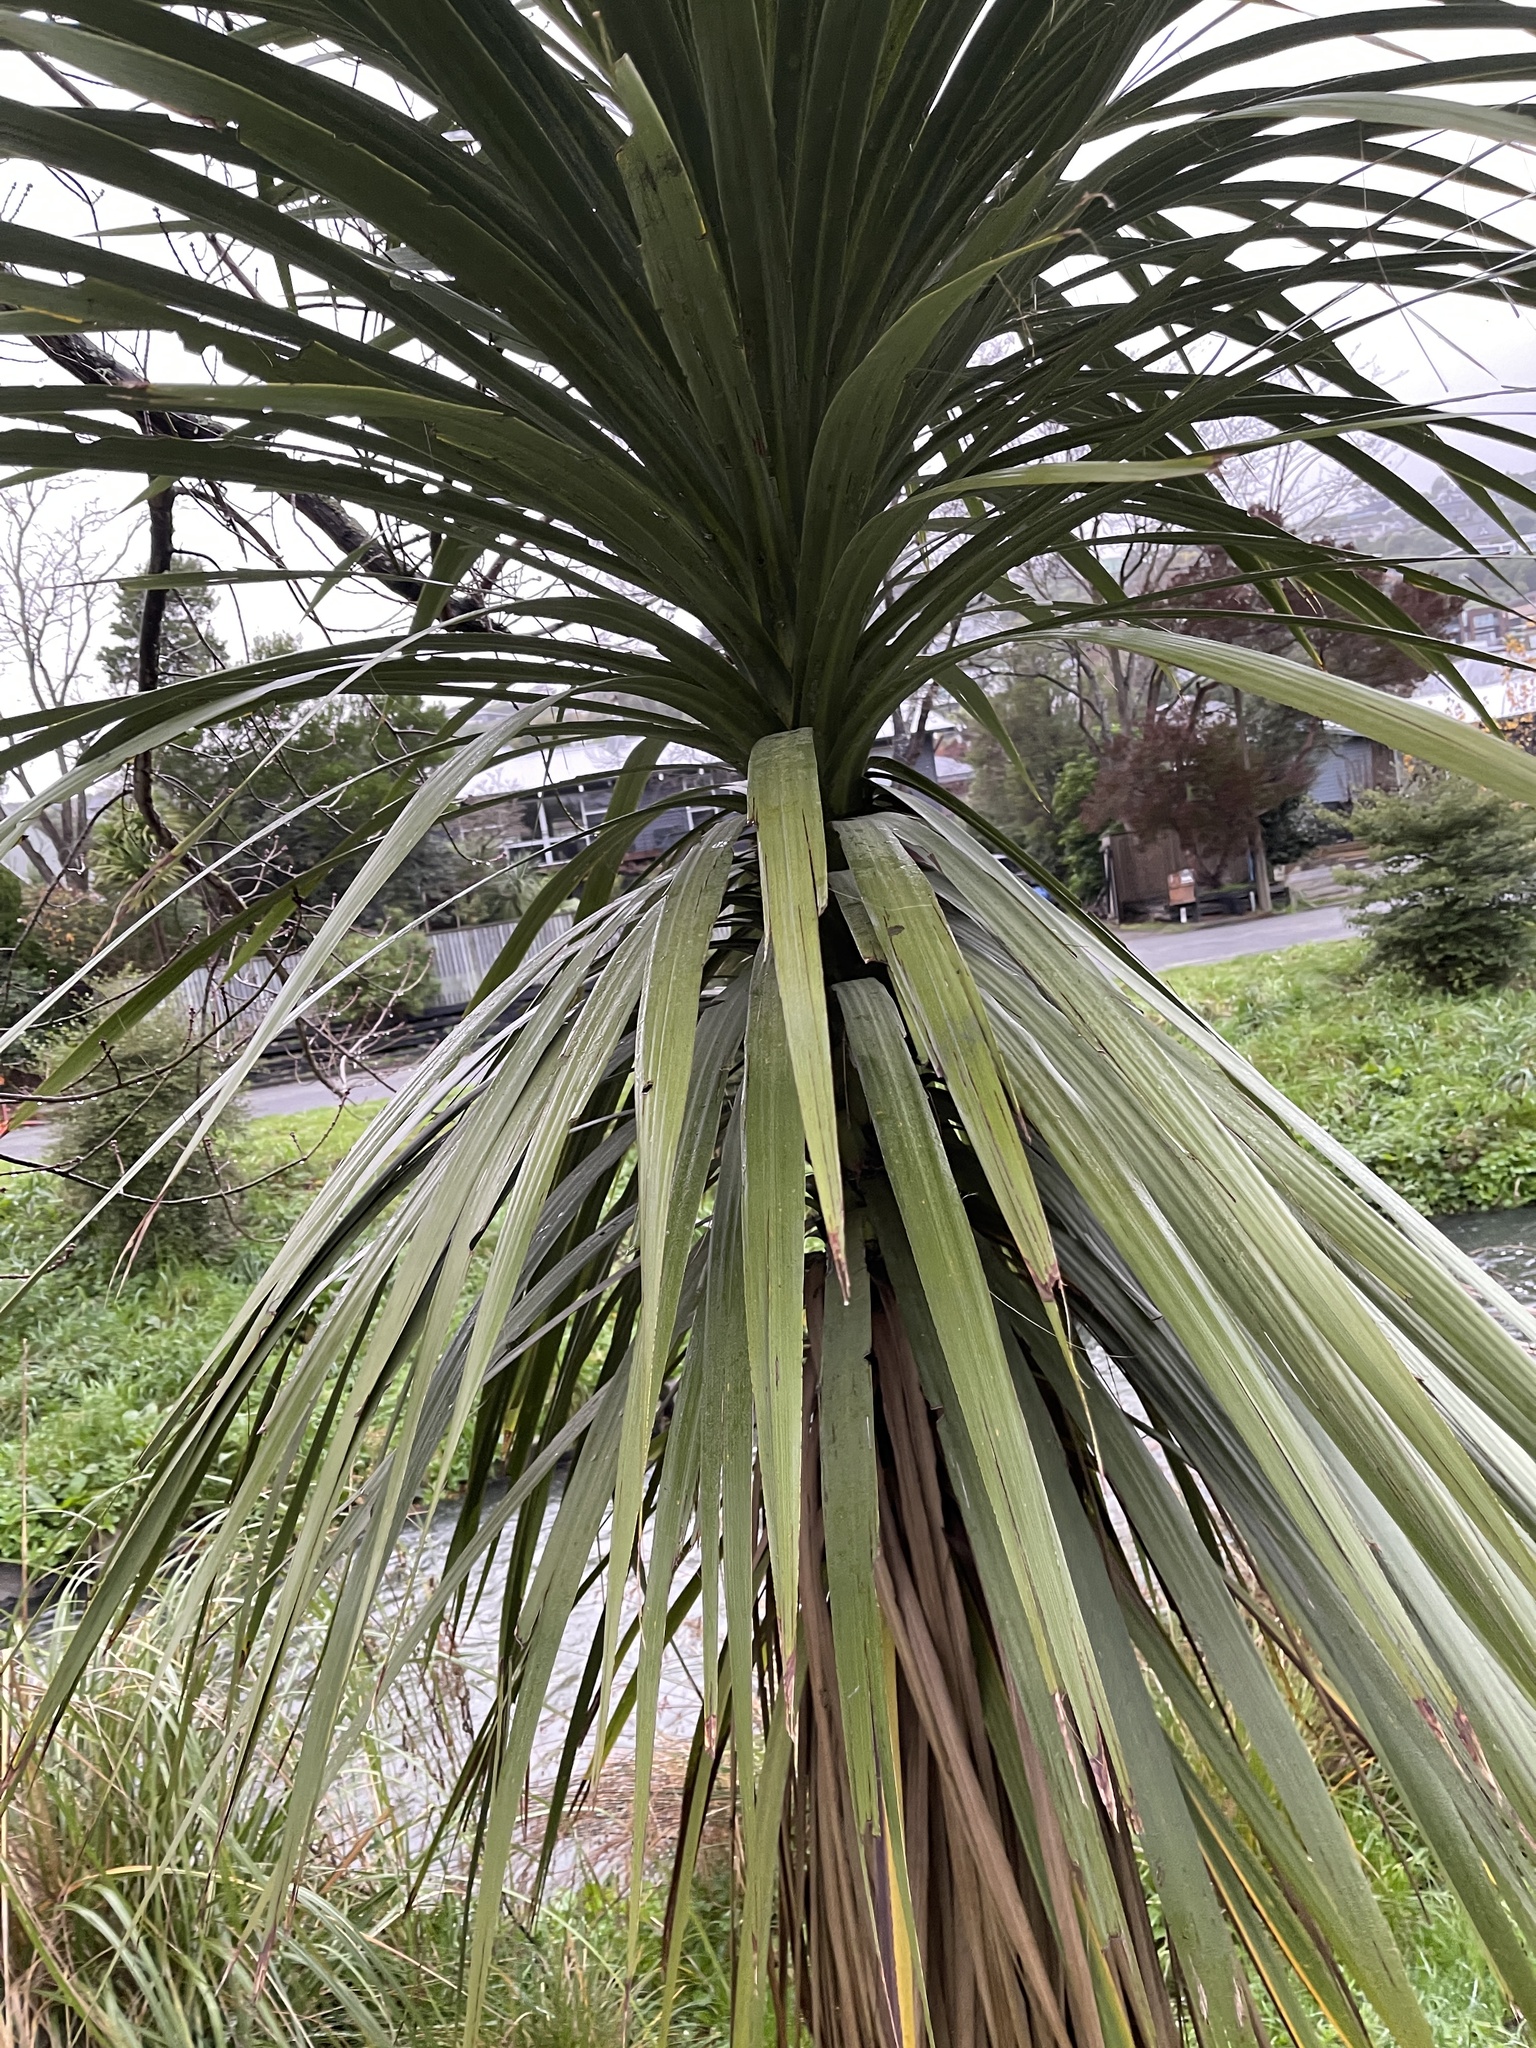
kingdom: Plantae
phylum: Tracheophyta
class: Liliopsida
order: Asparagales
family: Asparagaceae
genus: Cordyline
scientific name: Cordyline australis
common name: Cabbage-palm
